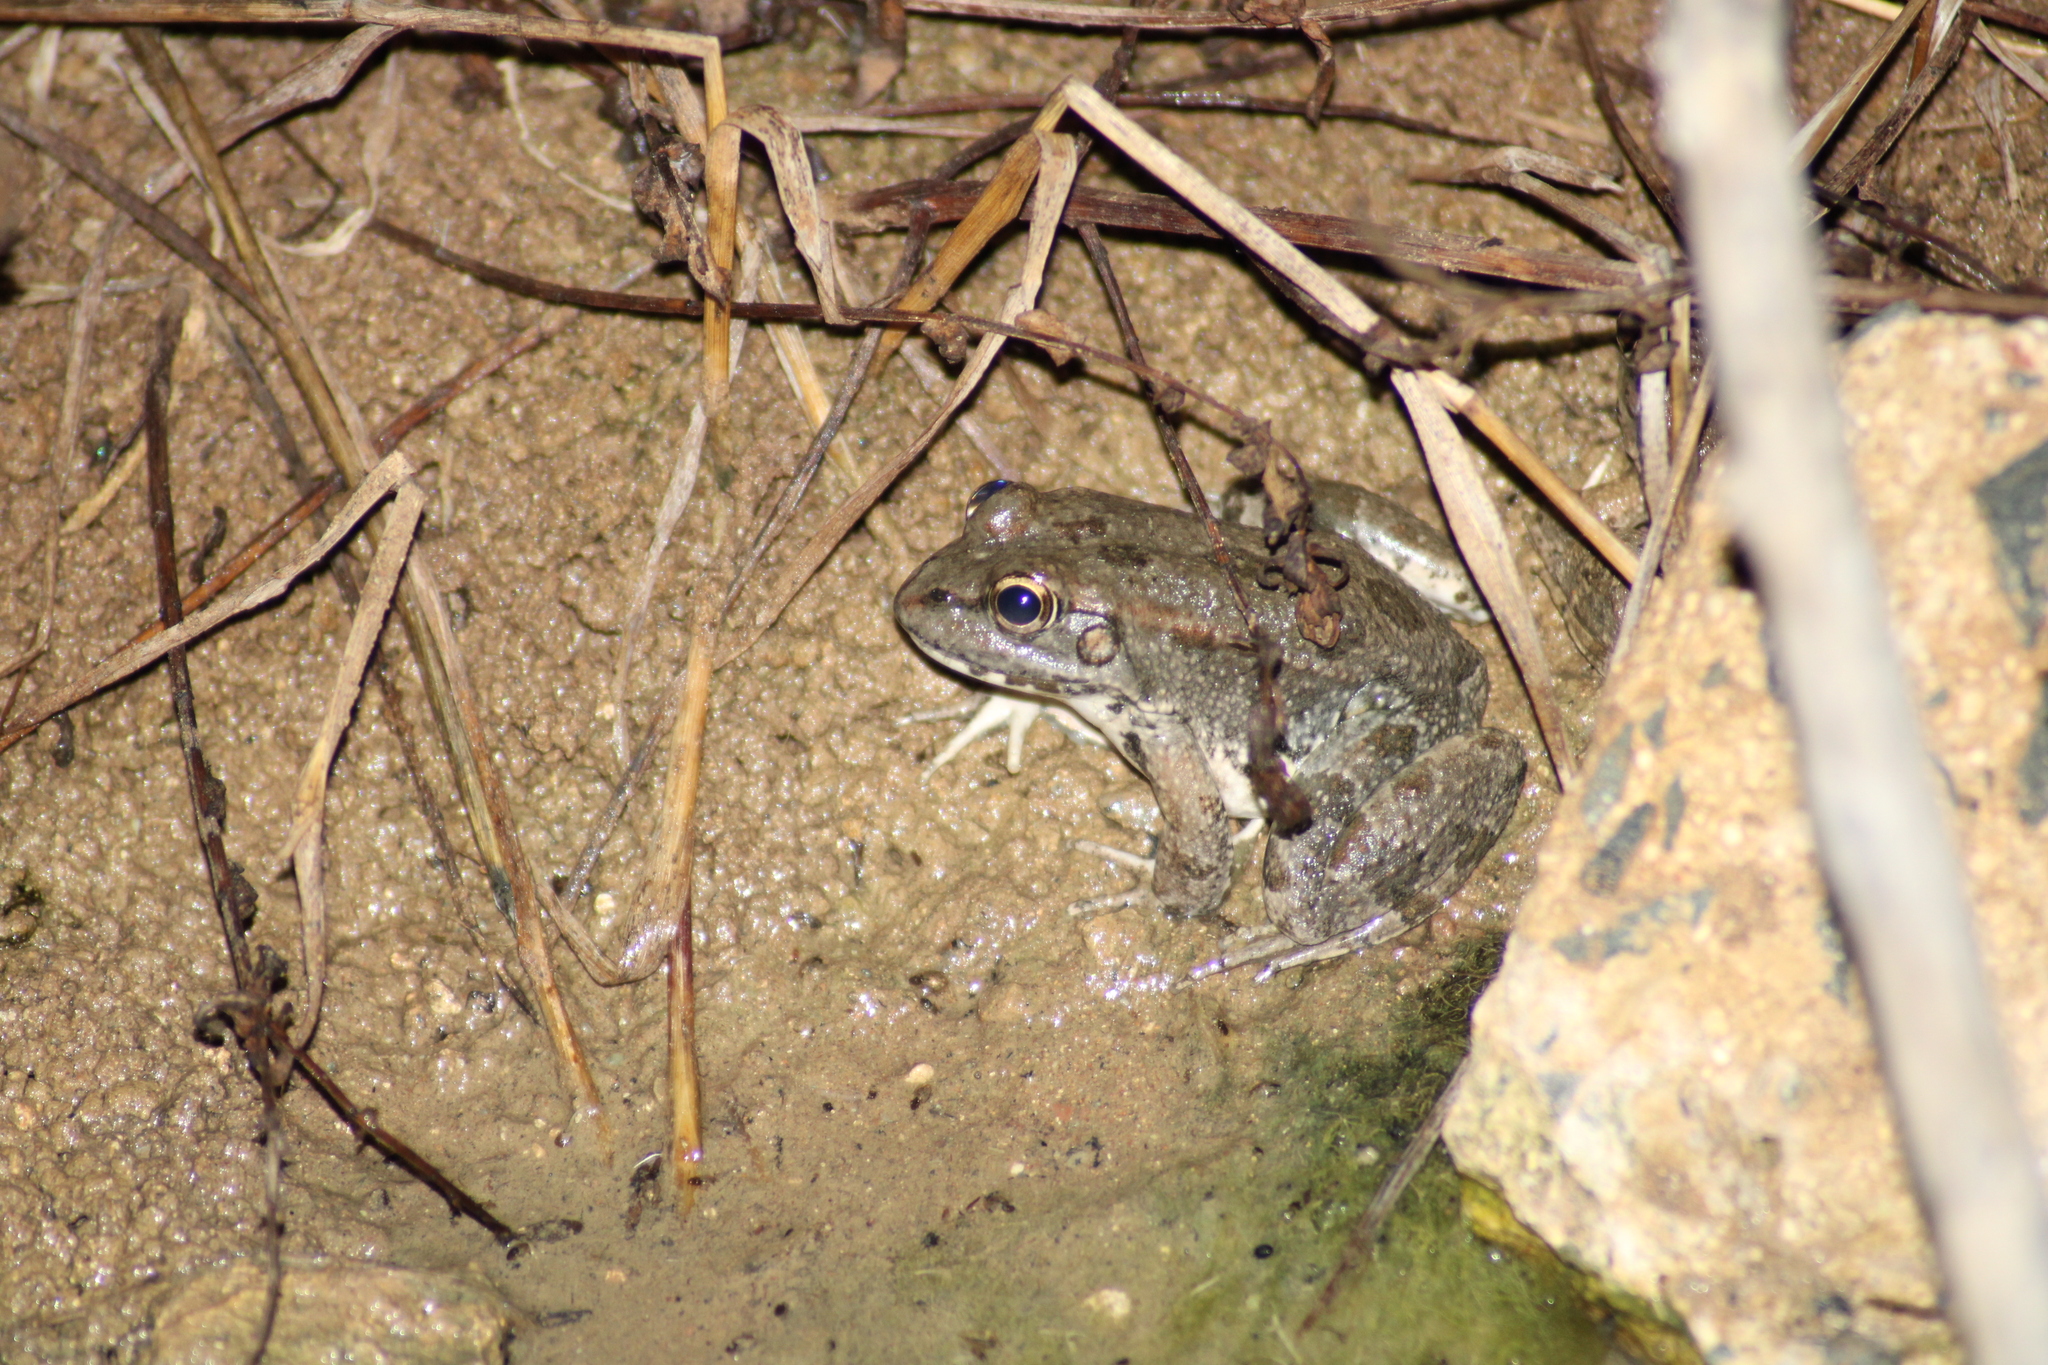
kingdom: Animalia
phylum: Chordata
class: Amphibia
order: Anura
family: Ranidae
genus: Pelophylax
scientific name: Pelophylax ridibundus
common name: Marsh frog
